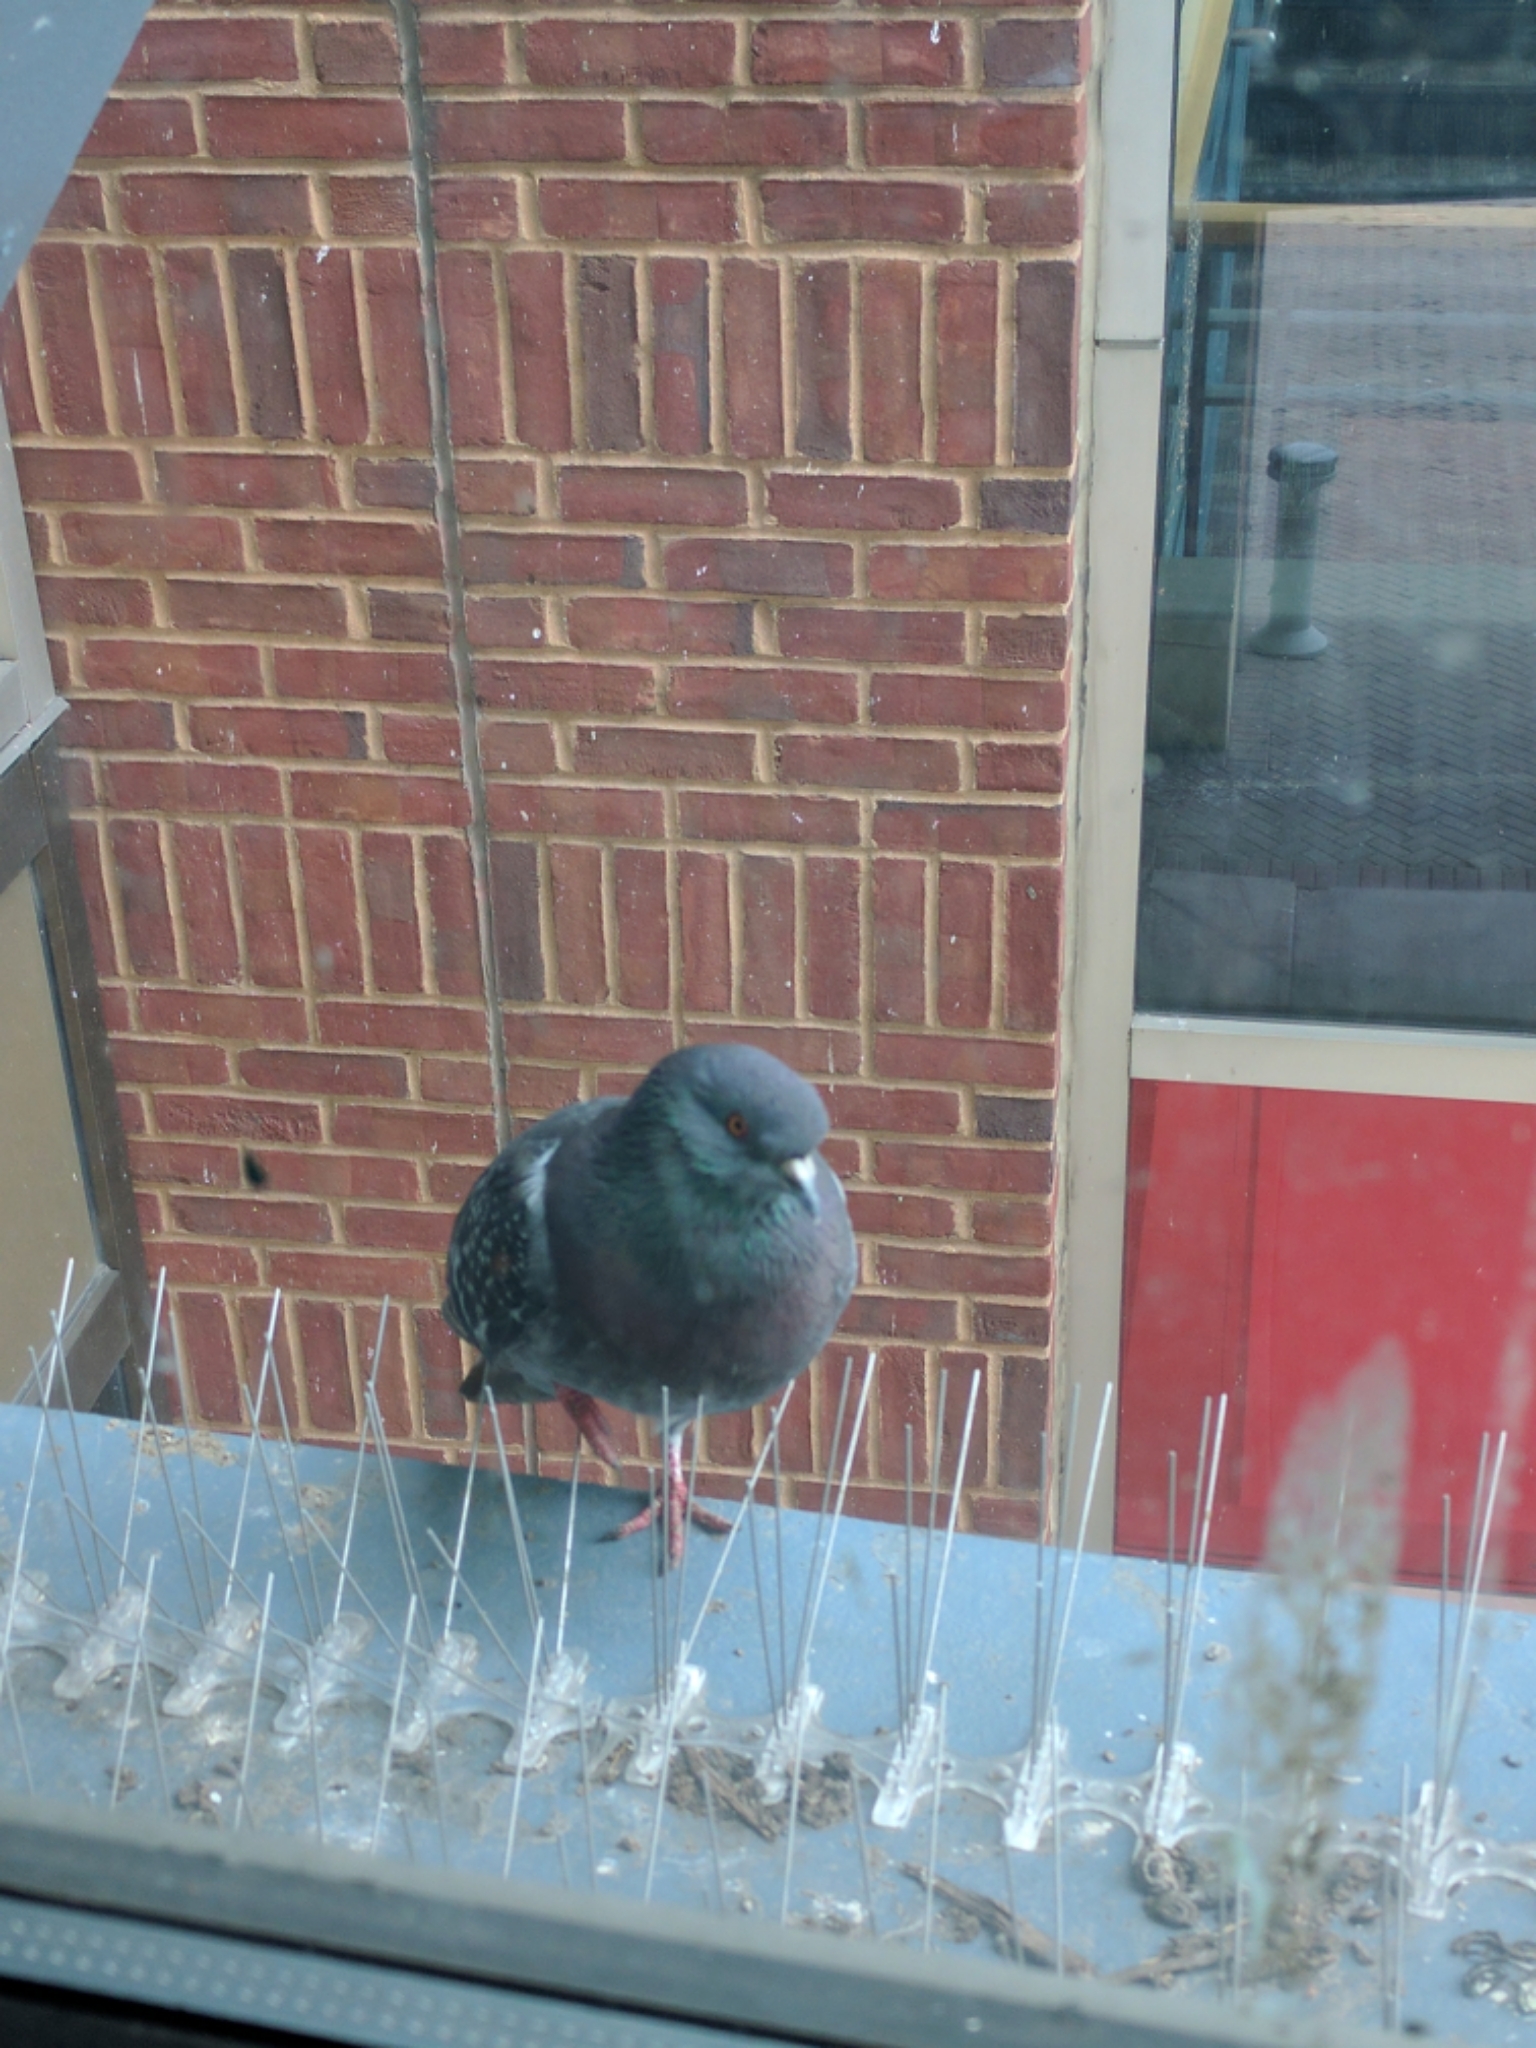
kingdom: Animalia
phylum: Chordata
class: Aves
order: Columbiformes
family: Columbidae
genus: Columba
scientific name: Columba livia
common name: Rock pigeon
